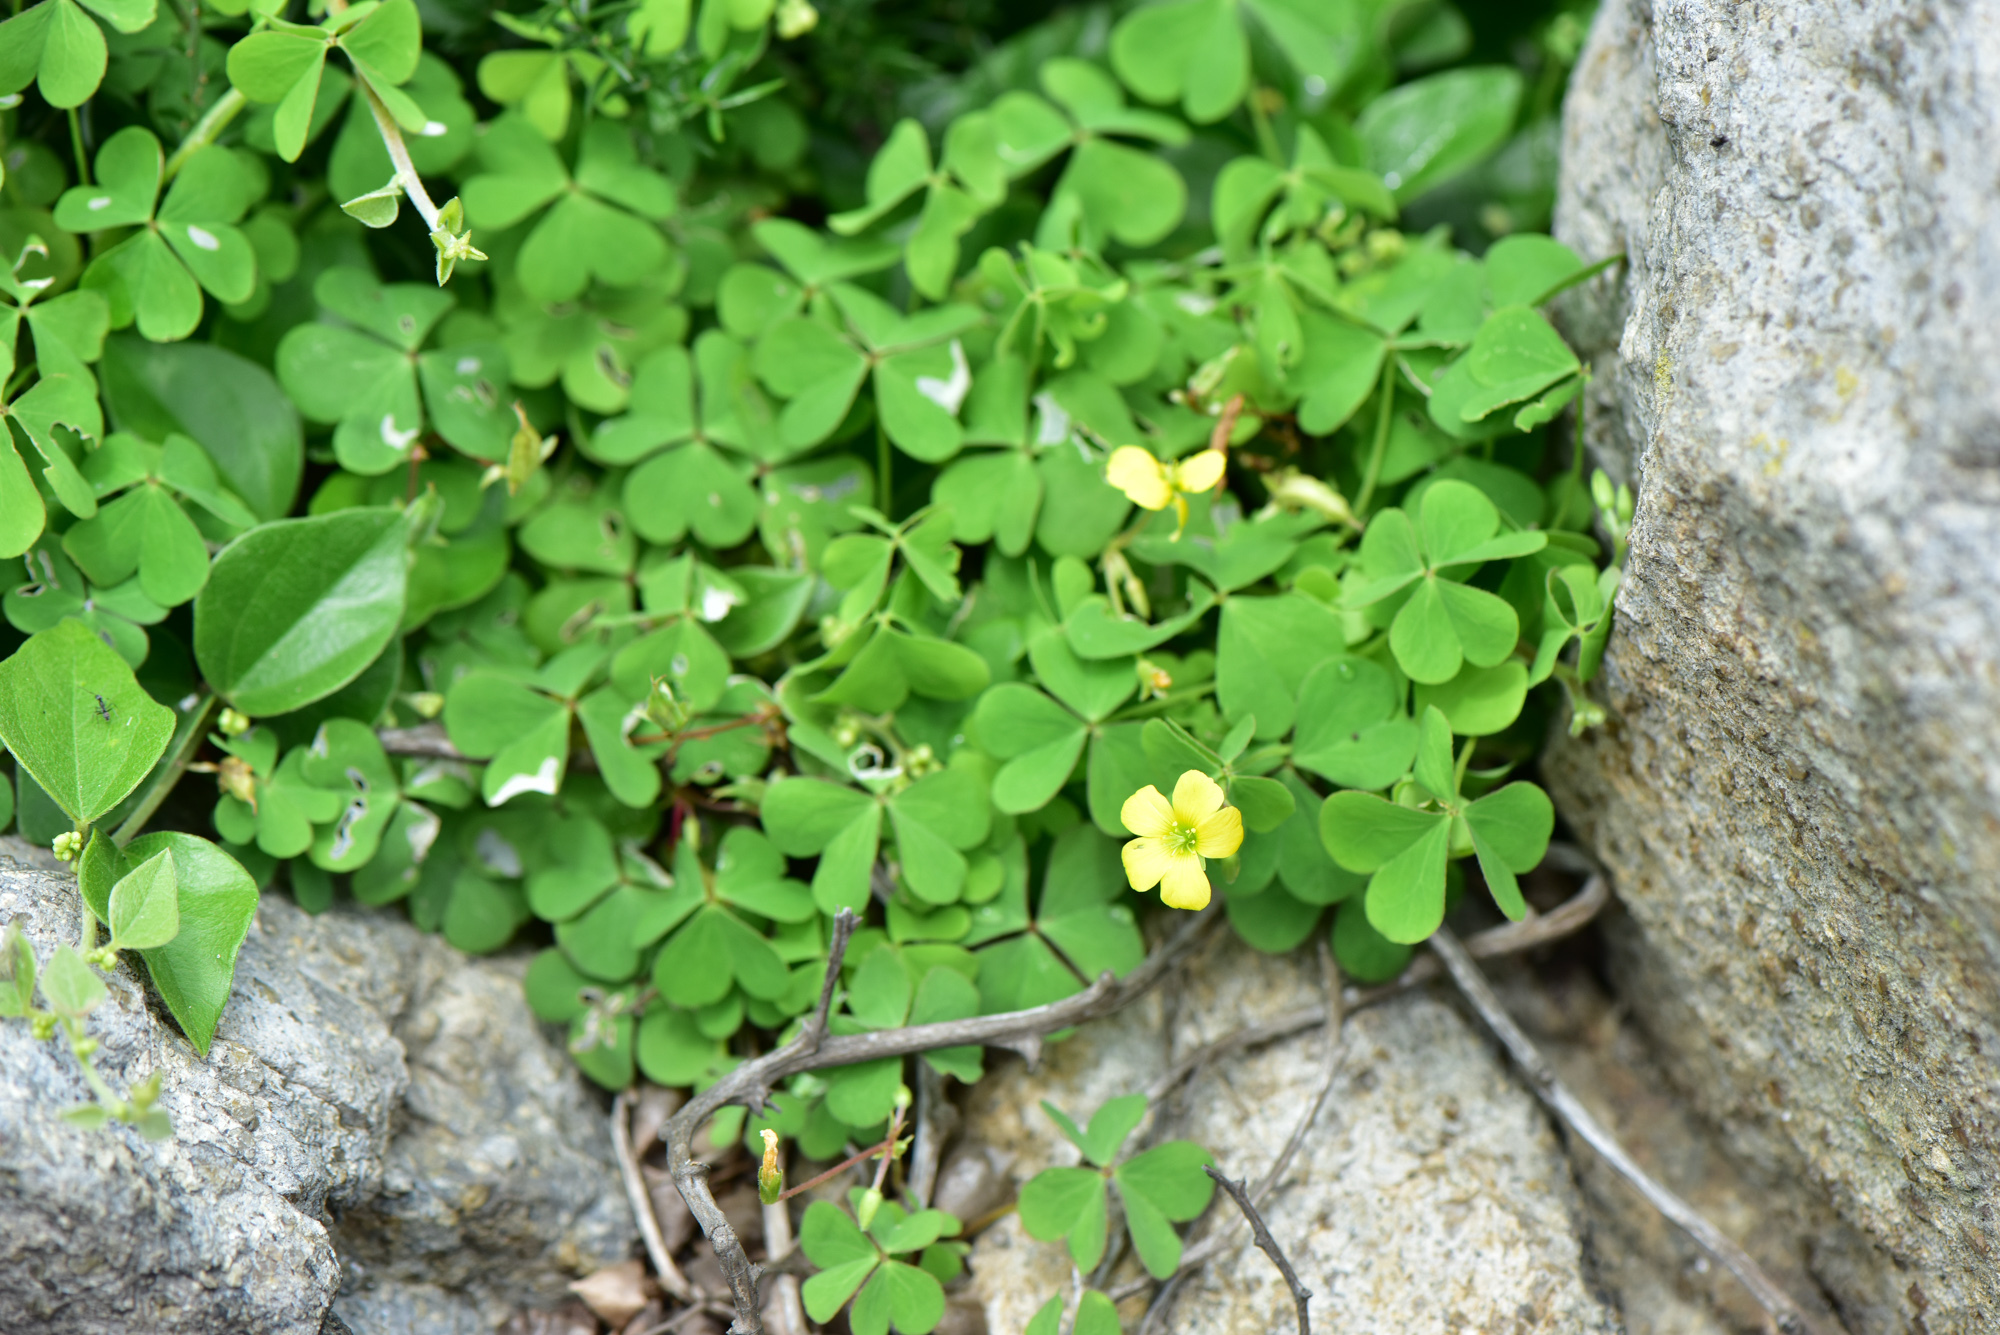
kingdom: Plantae
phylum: Tracheophyta
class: Magnoliopsida
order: Oxalidales
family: Oxalidaceae
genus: Oxalis
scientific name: Oxalis corniculata
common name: Procumbent yellow-sorrel
